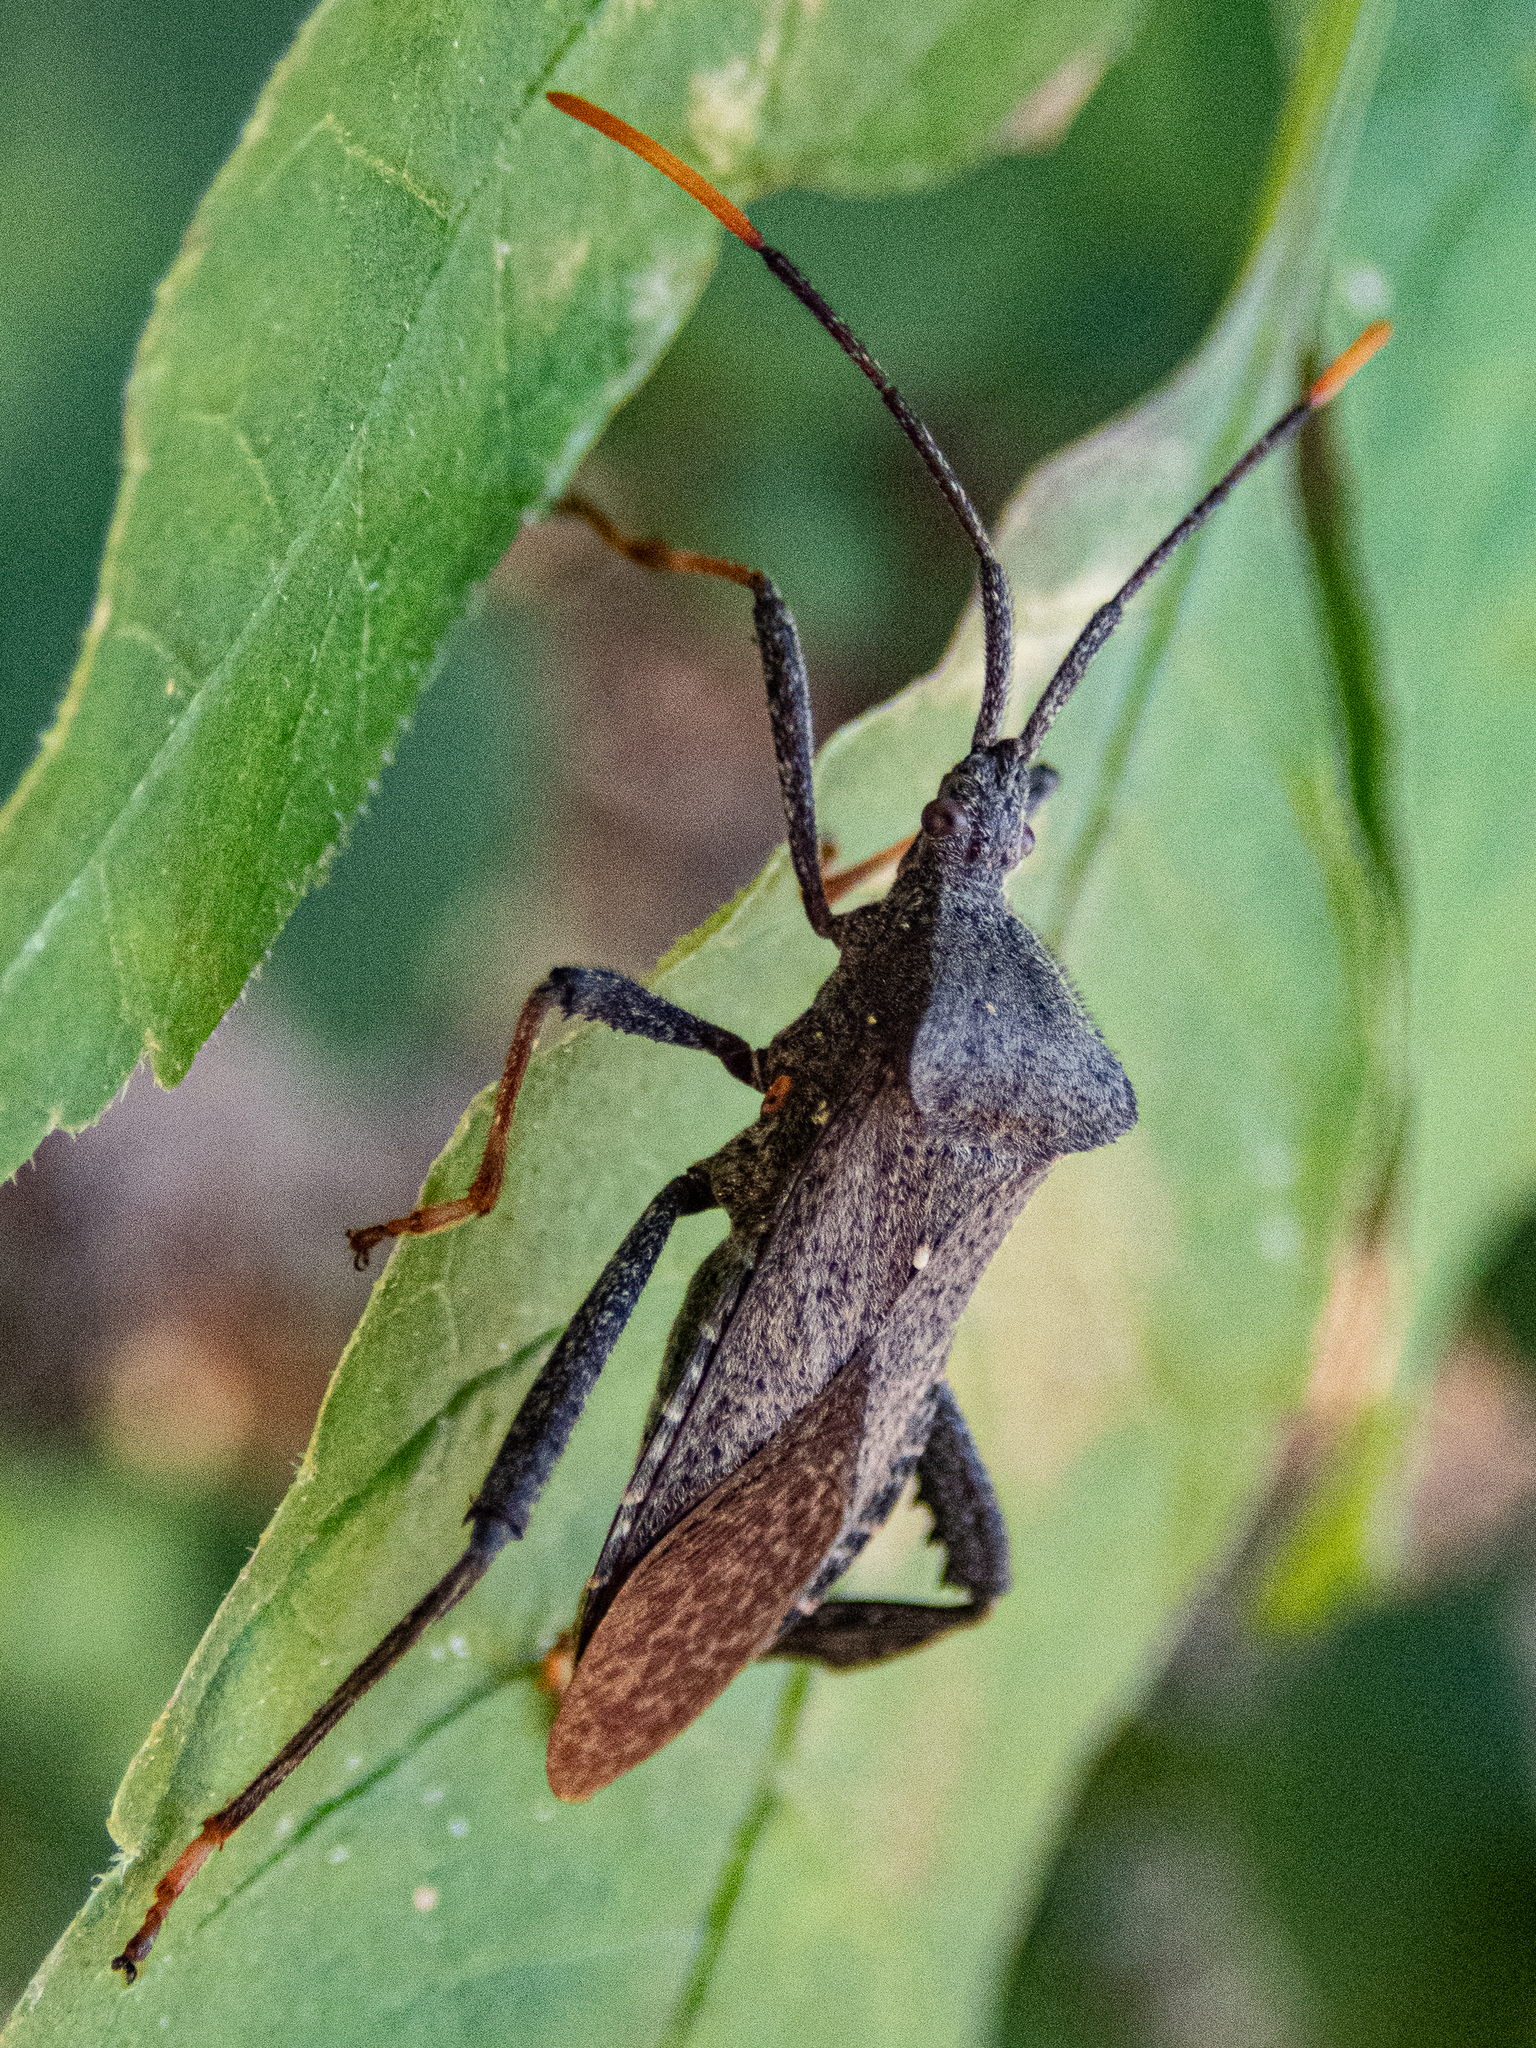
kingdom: Animalia
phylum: Arthropoda
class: Insecta
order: Hemiptera
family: Coreidae
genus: Acanthocephala
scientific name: Acanthocephala terminalis
